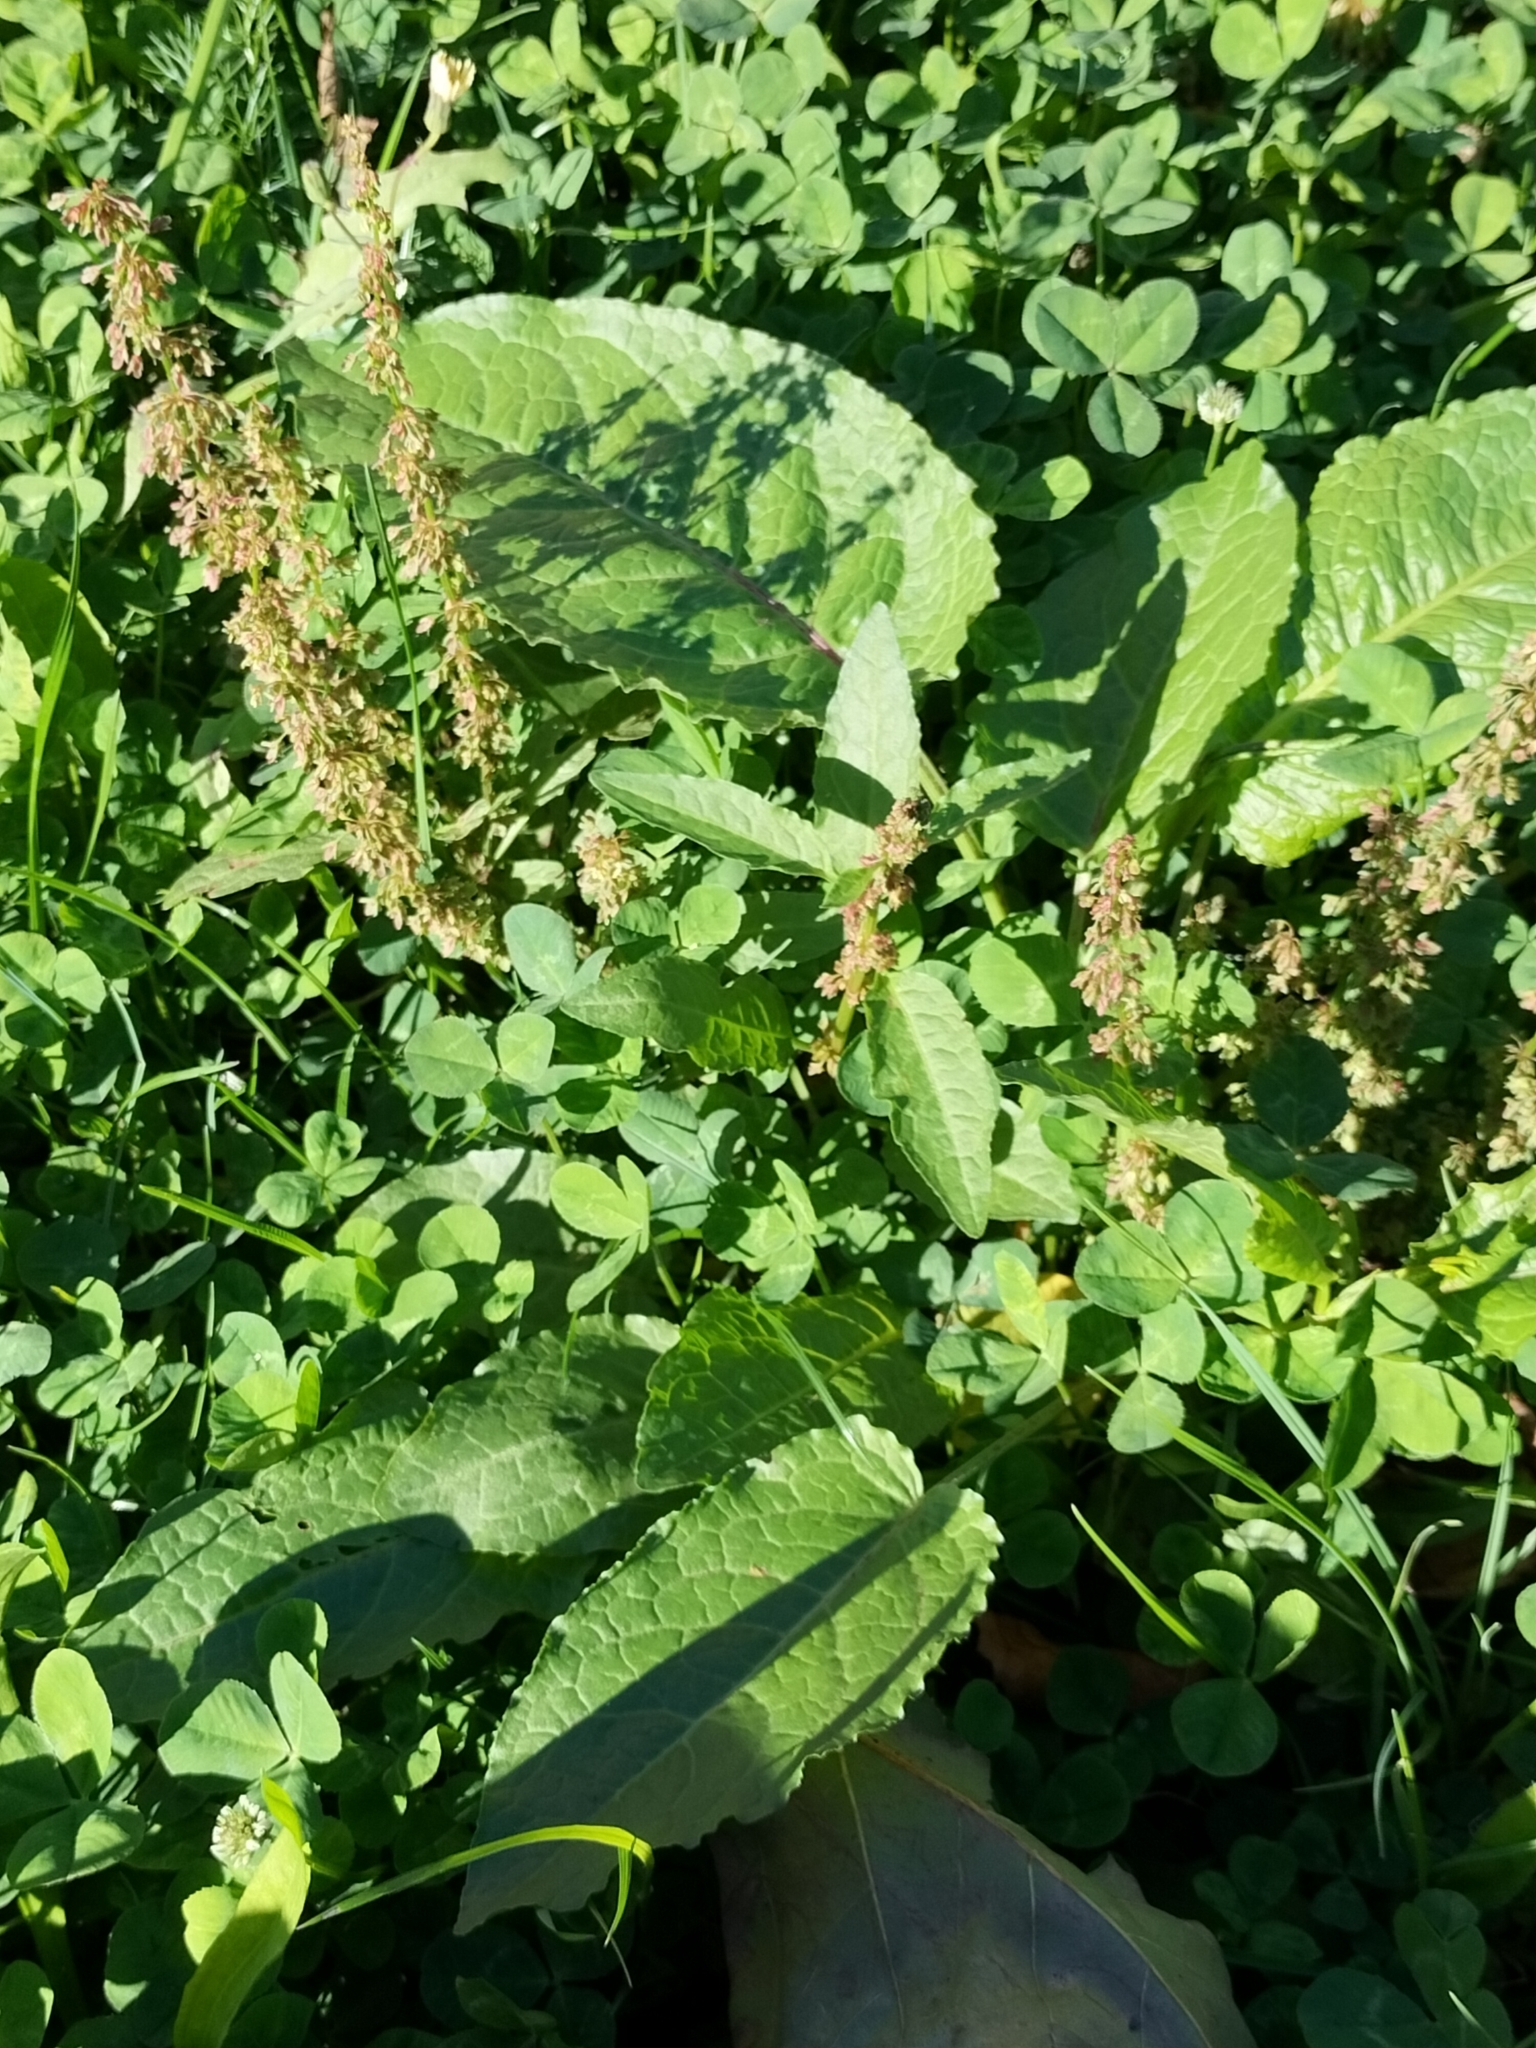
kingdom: Plantae
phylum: Tracheophyta
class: Magnoliopsida
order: Caryophyllales
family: Polygonaceae
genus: Rumex
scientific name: Rumex obtusifolius
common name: Bitter dock
